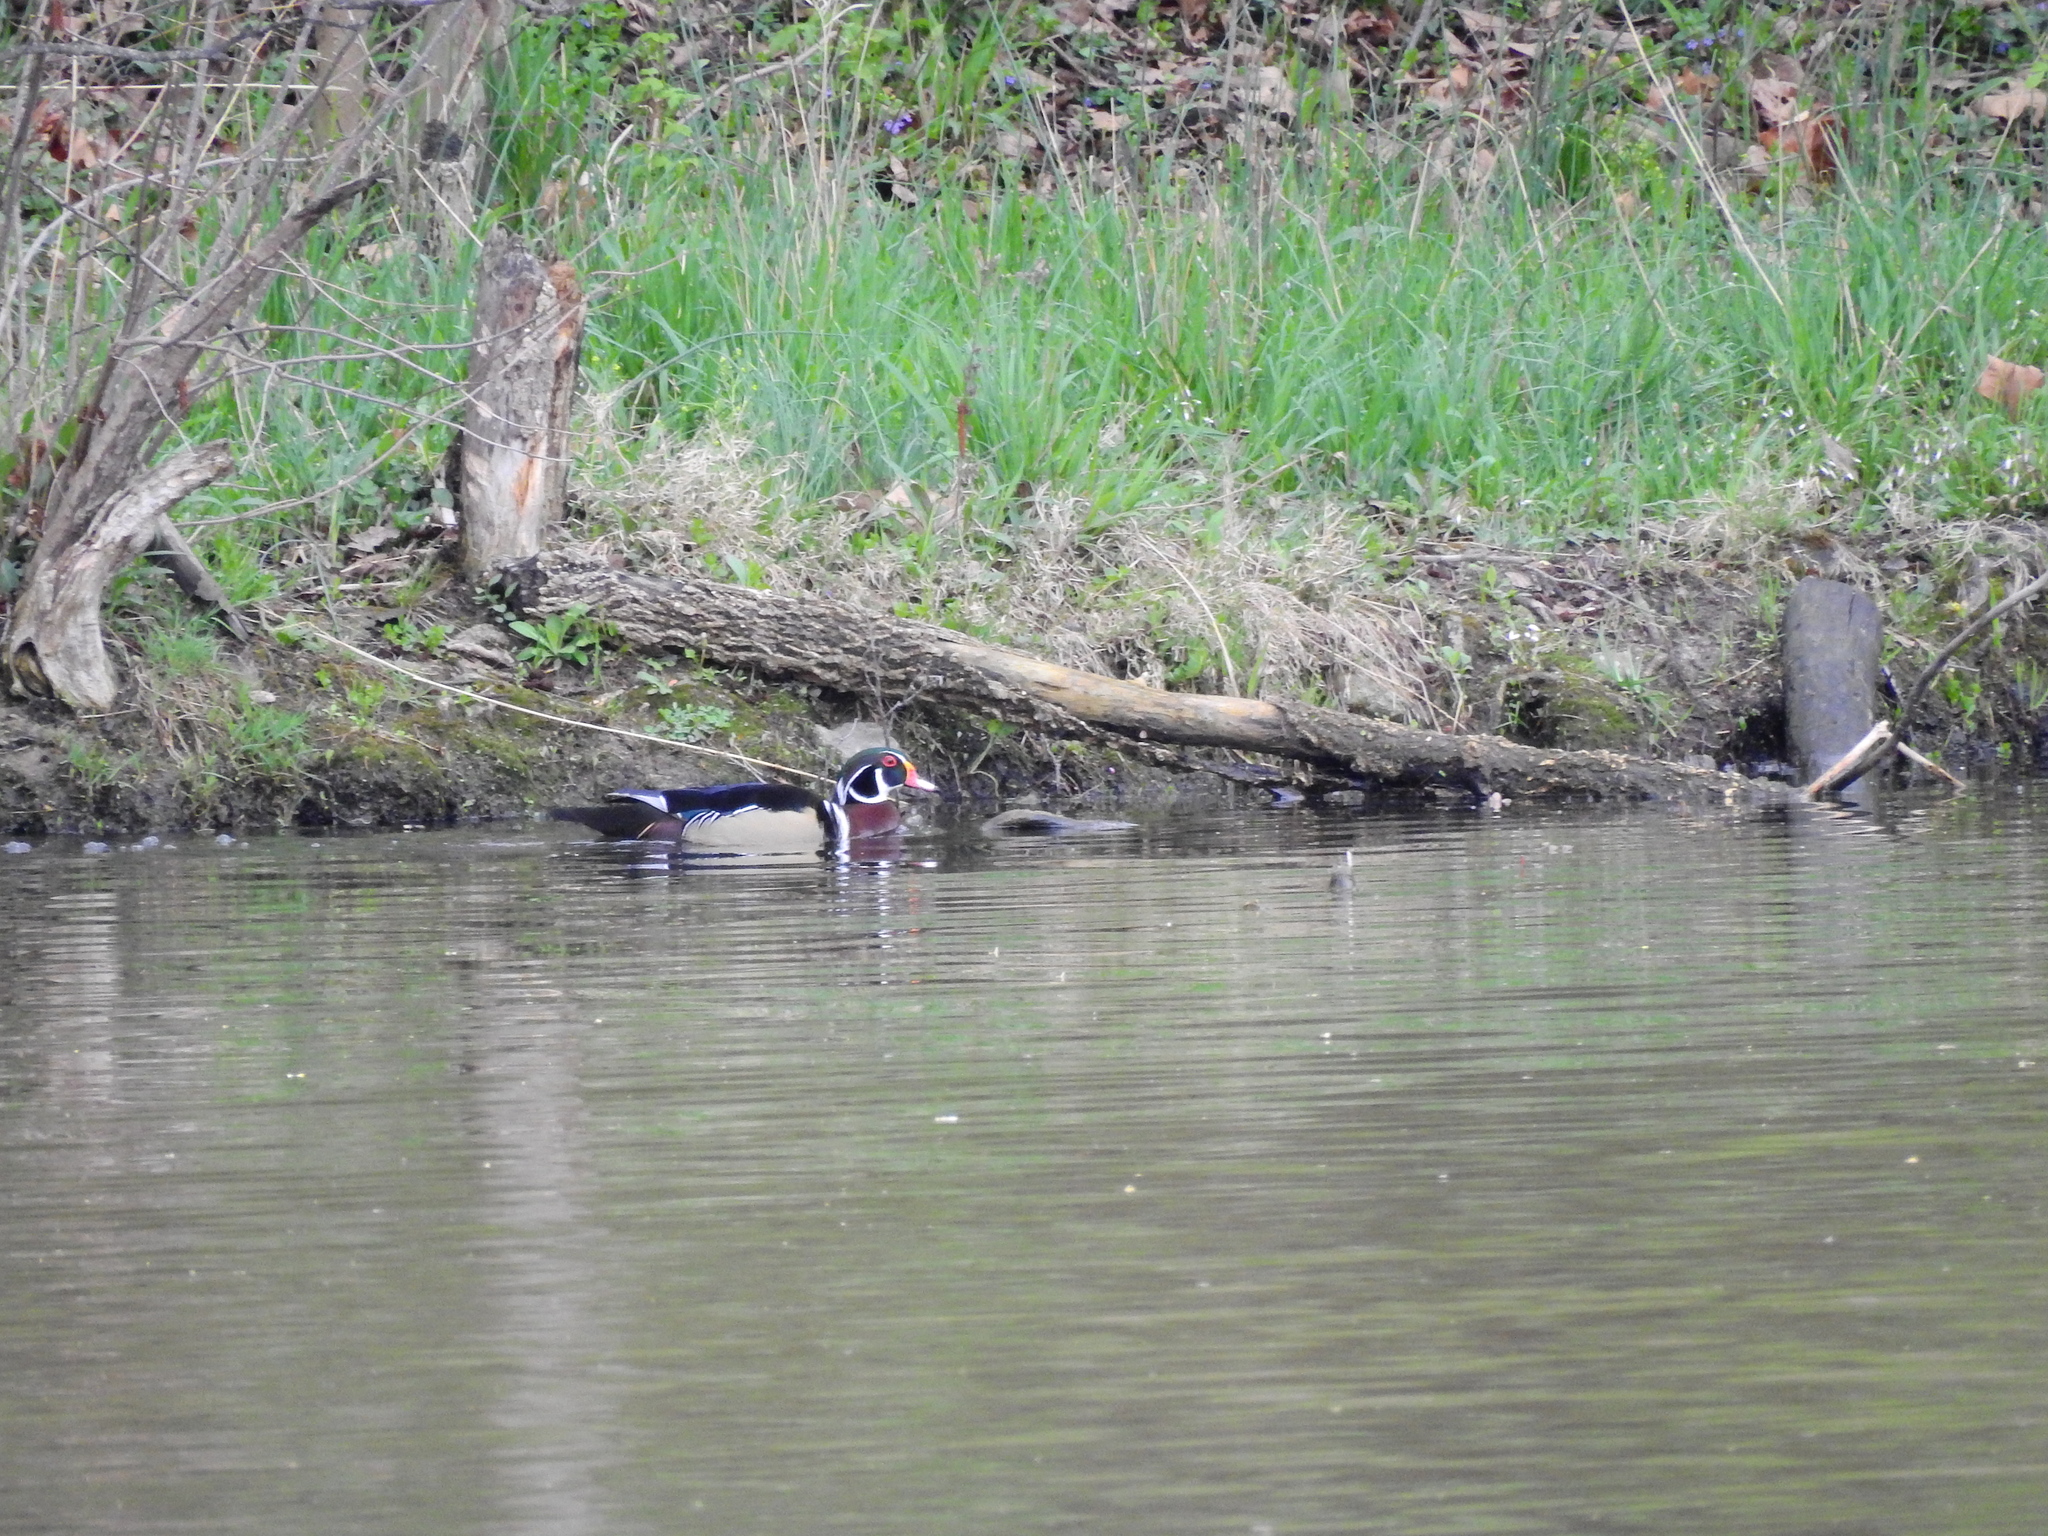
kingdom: Animalia
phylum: Chordata
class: Aves
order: Anseriformes
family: Anatidae
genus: Aix
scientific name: Aix sponsa
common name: Wood duck
